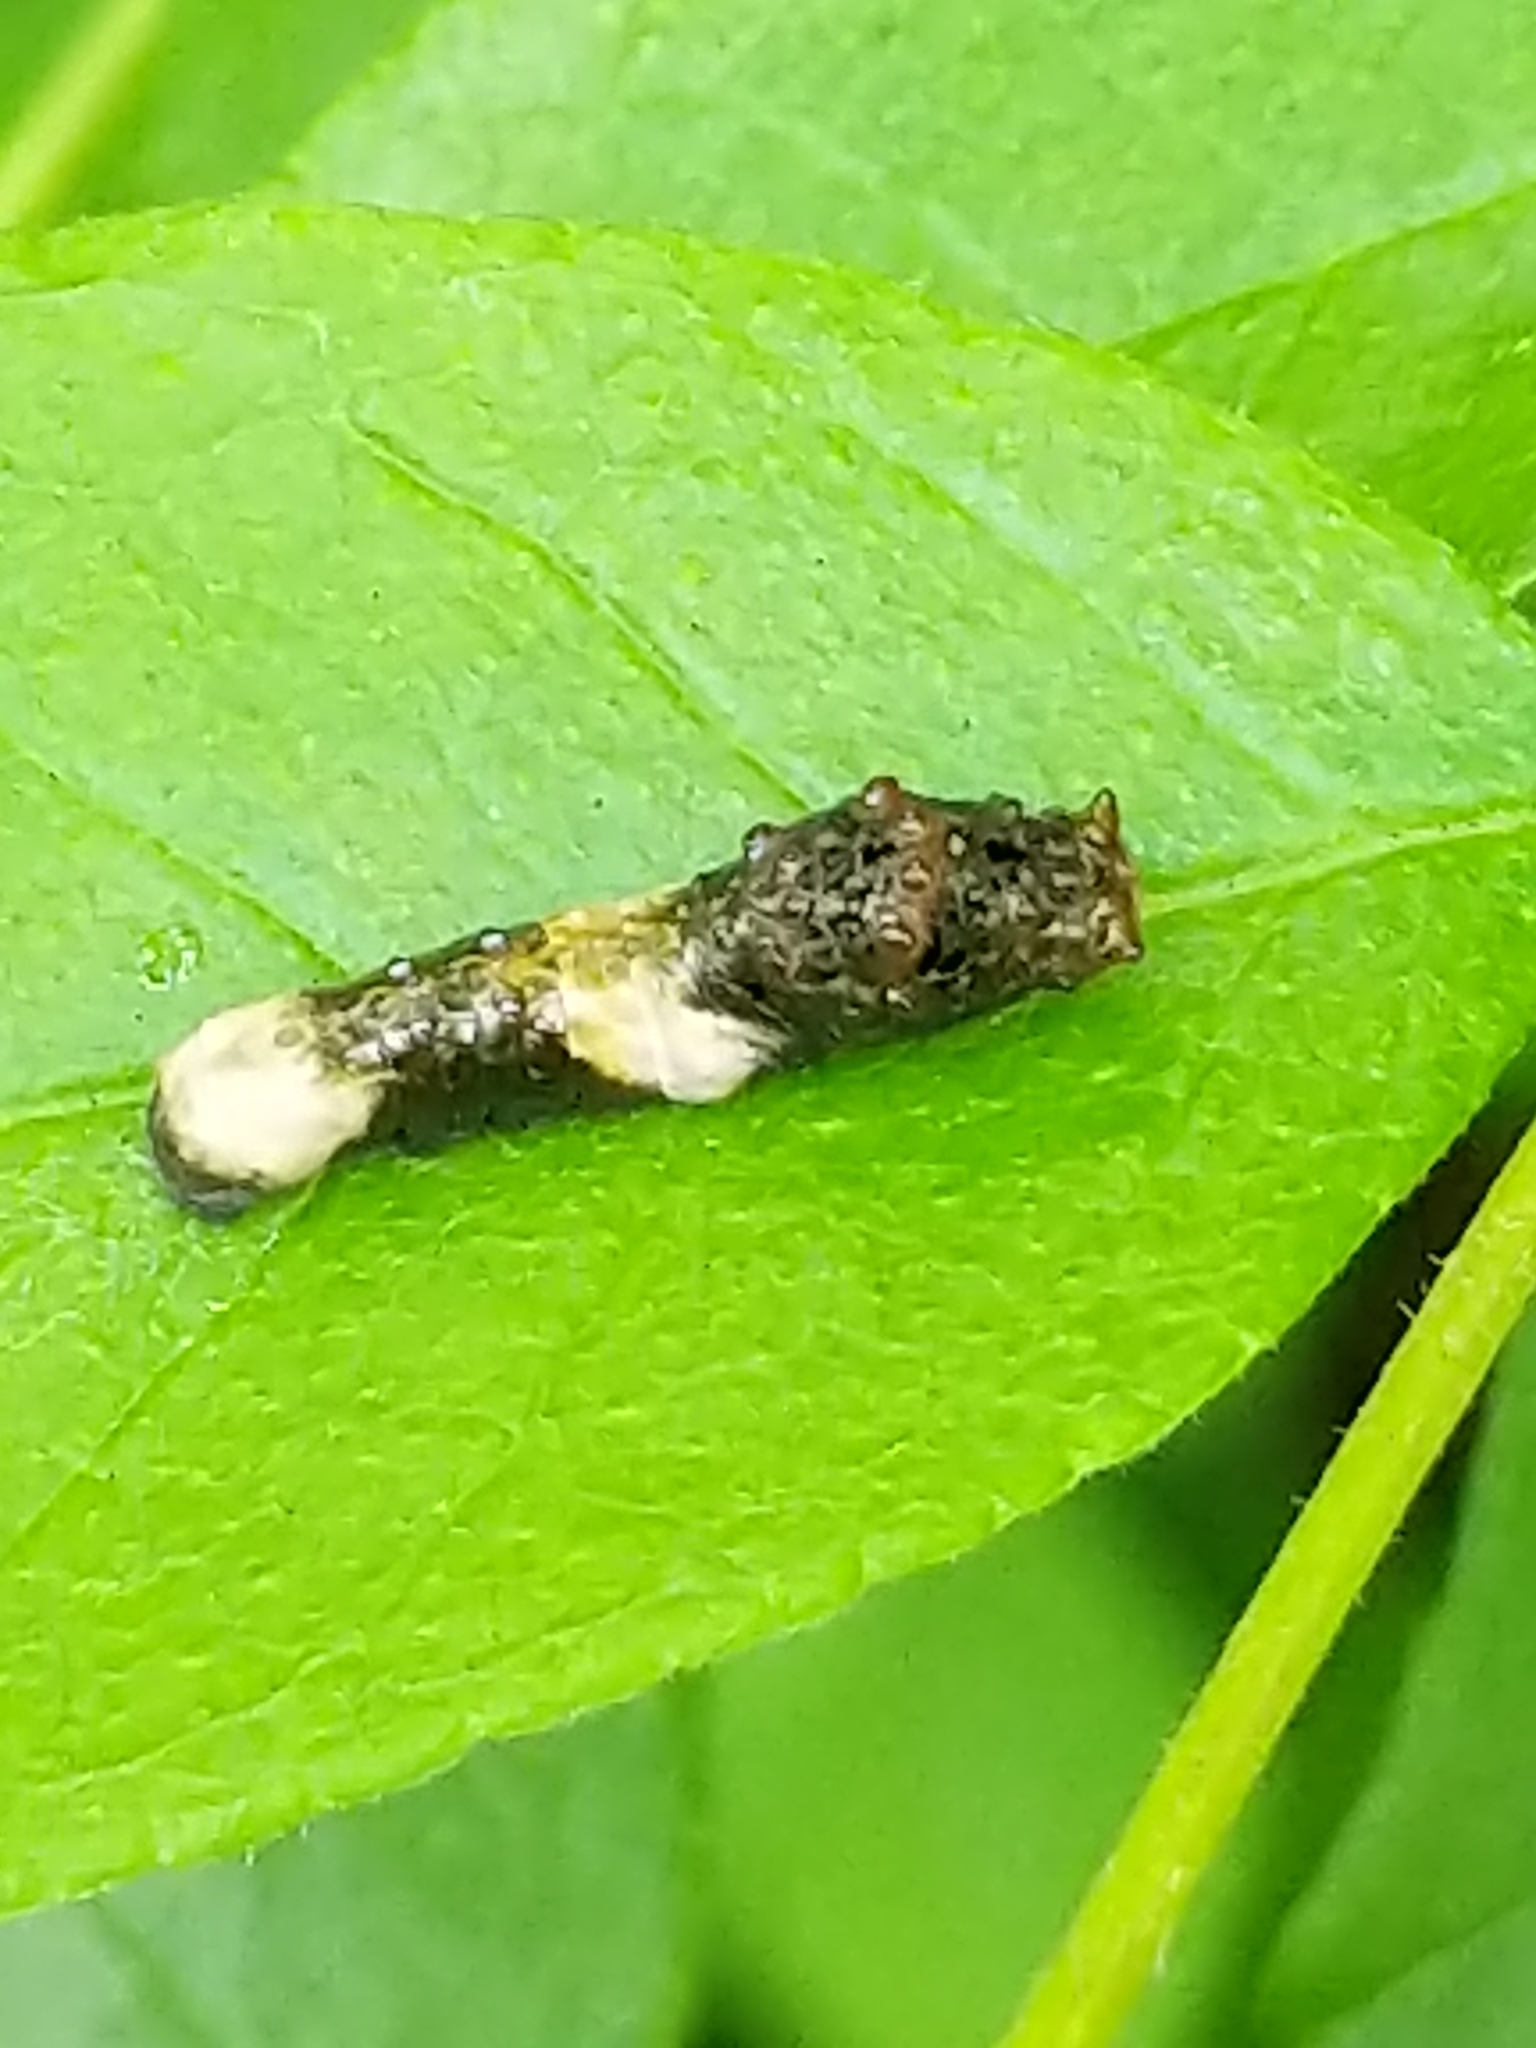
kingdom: Animalia
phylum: Arthropoda
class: Insecta
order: Lepidoptera
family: Papilionidae
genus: Papilio
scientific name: Papilio cresphontes
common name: Giant swallowtail
